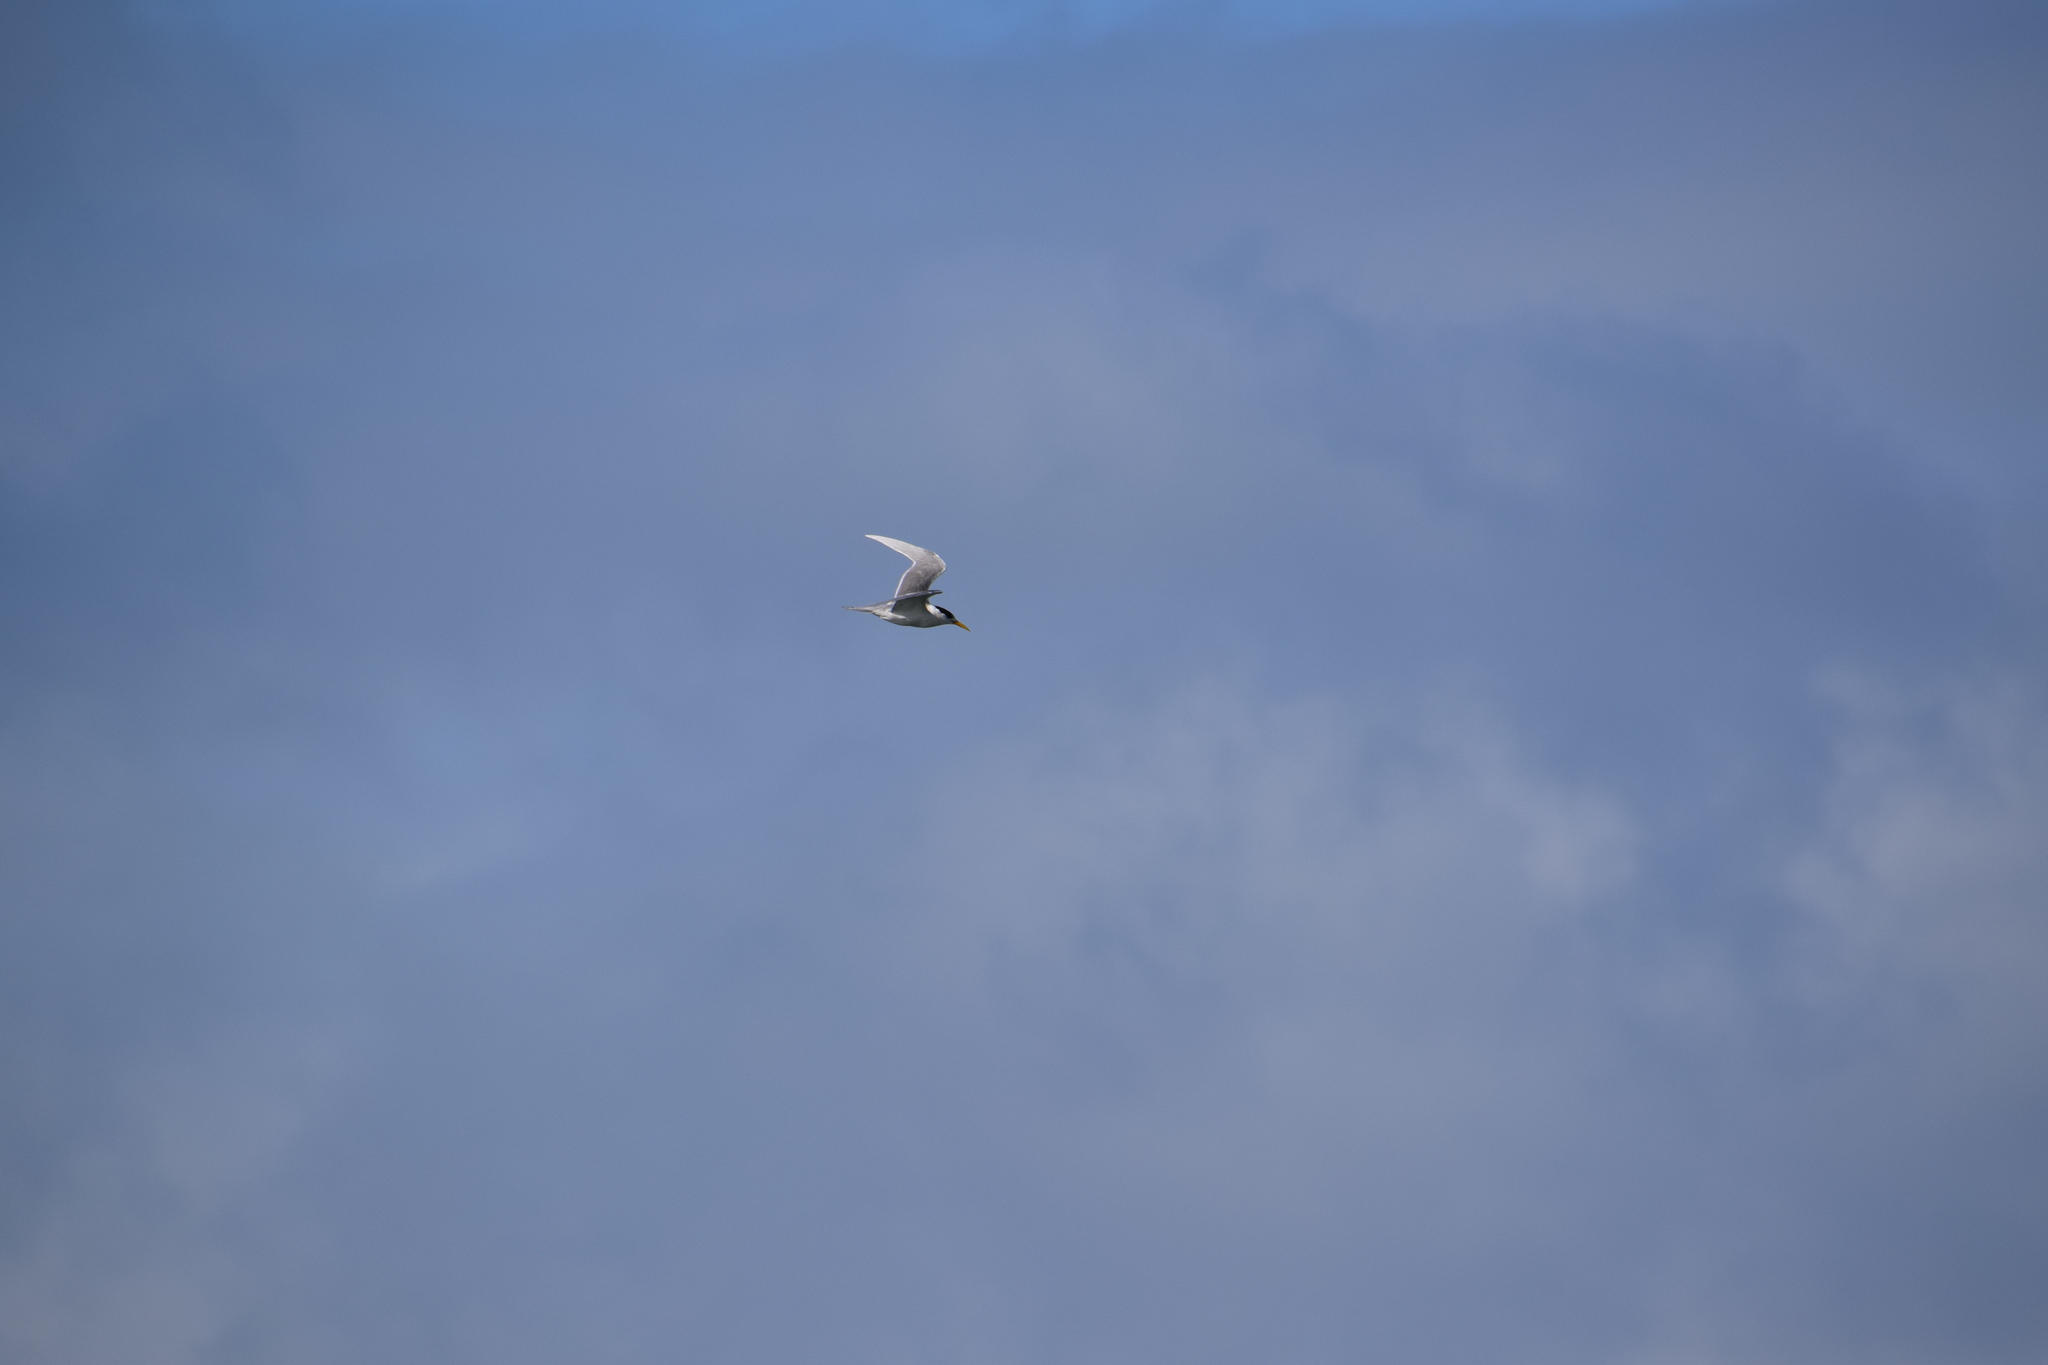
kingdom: Animalia
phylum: Chordata
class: Aves
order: Charadriiformes
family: Laridae
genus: Thalasseus
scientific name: Thalasseus bergii
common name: Greater crested tern
